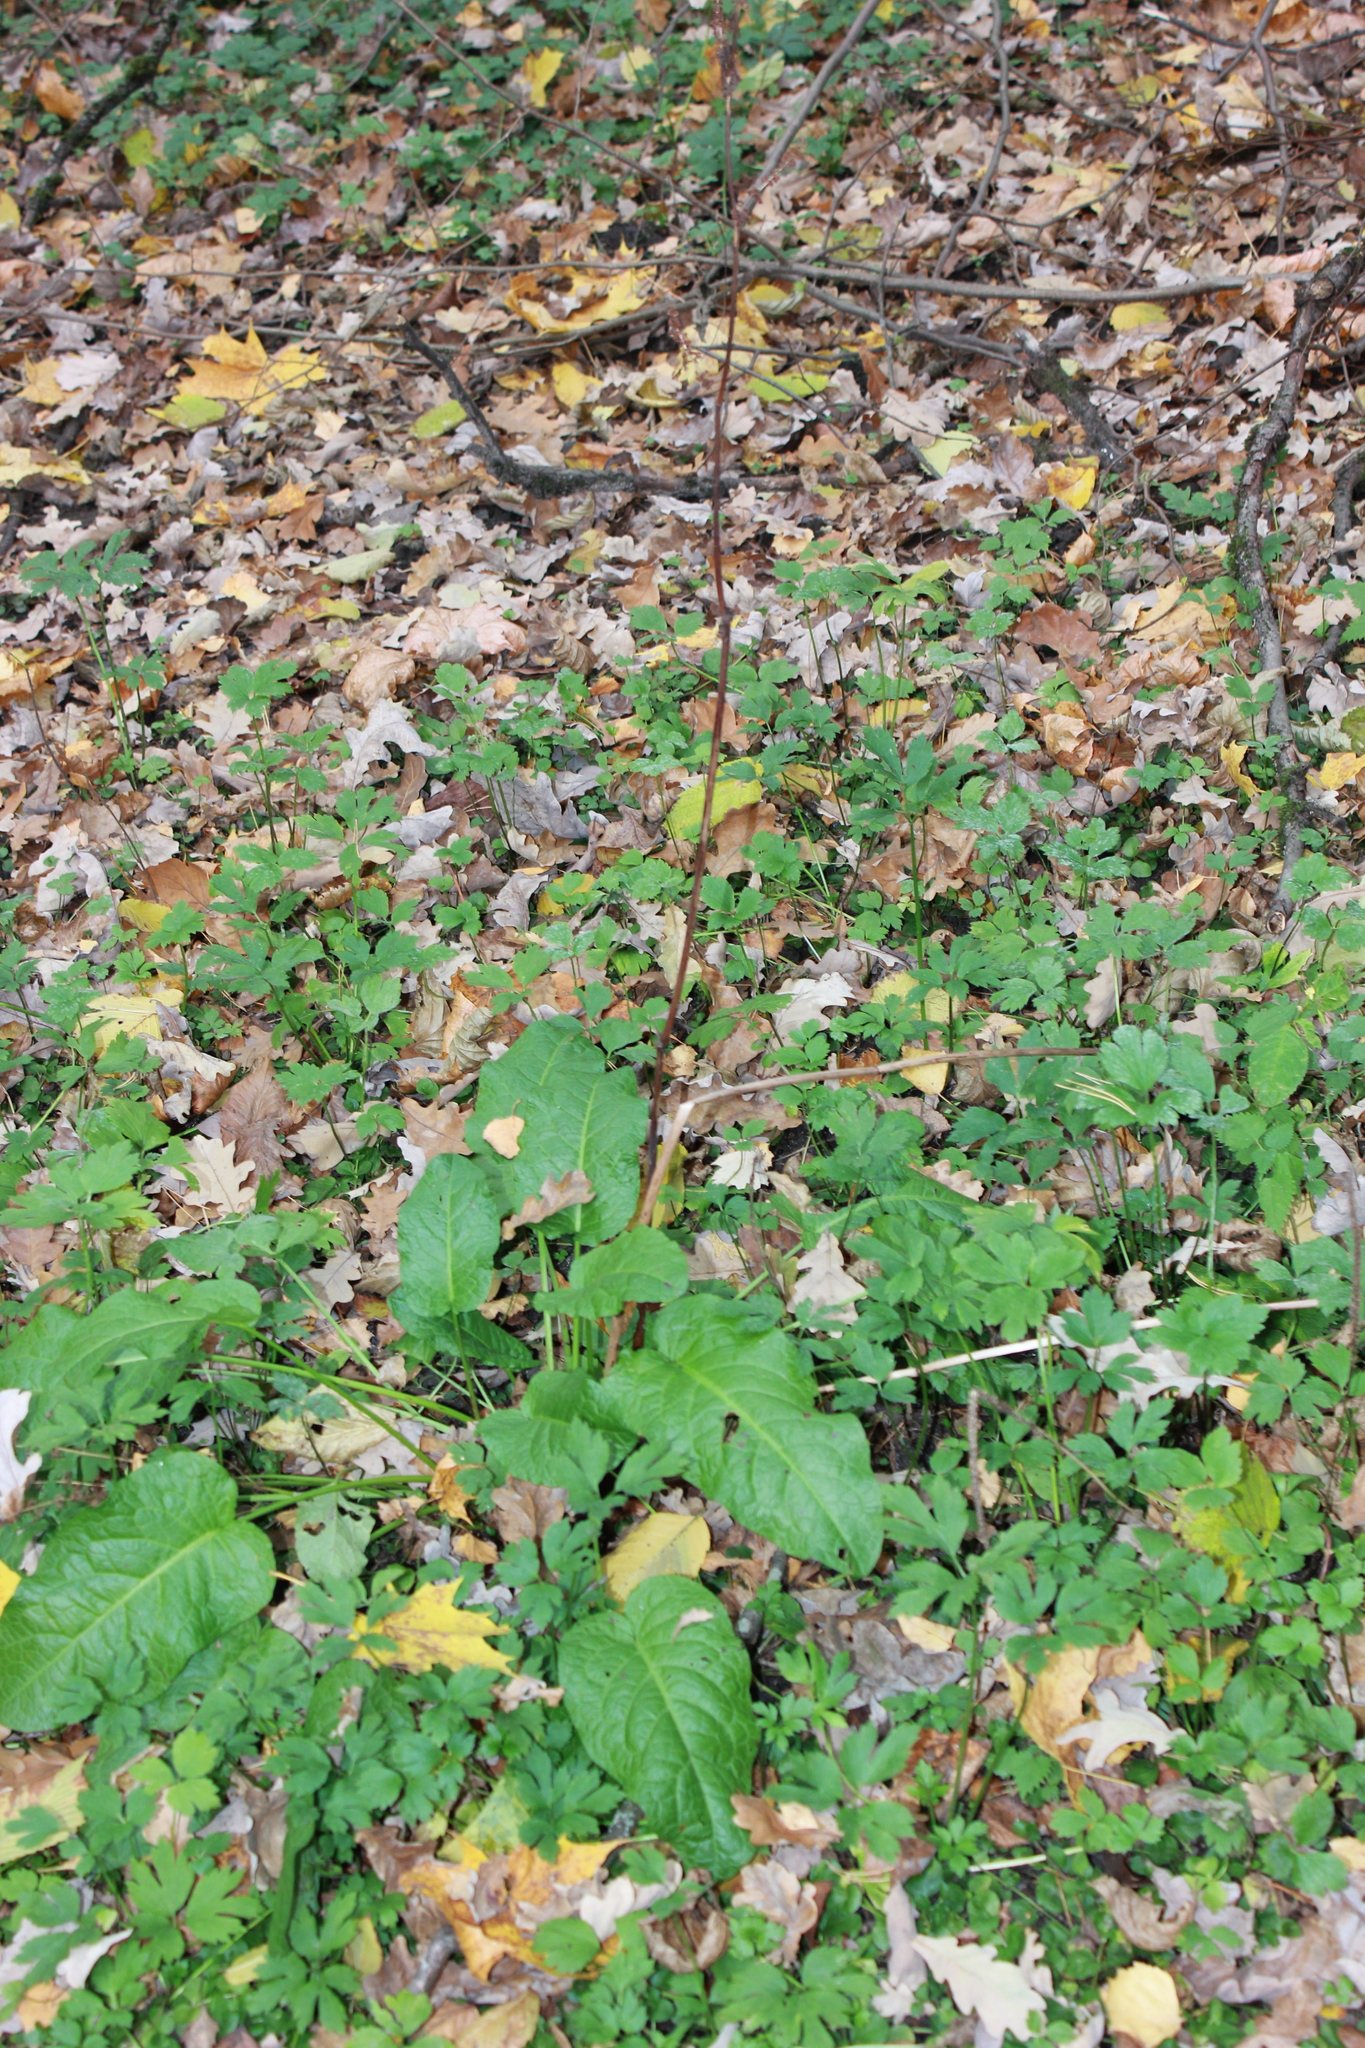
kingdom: Plantae
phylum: Tracheophyta
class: Magnoliopsida
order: Caryophyllales
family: Polygonaceae
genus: Rumex
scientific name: Rumex obtusifolius
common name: Bitter dock
